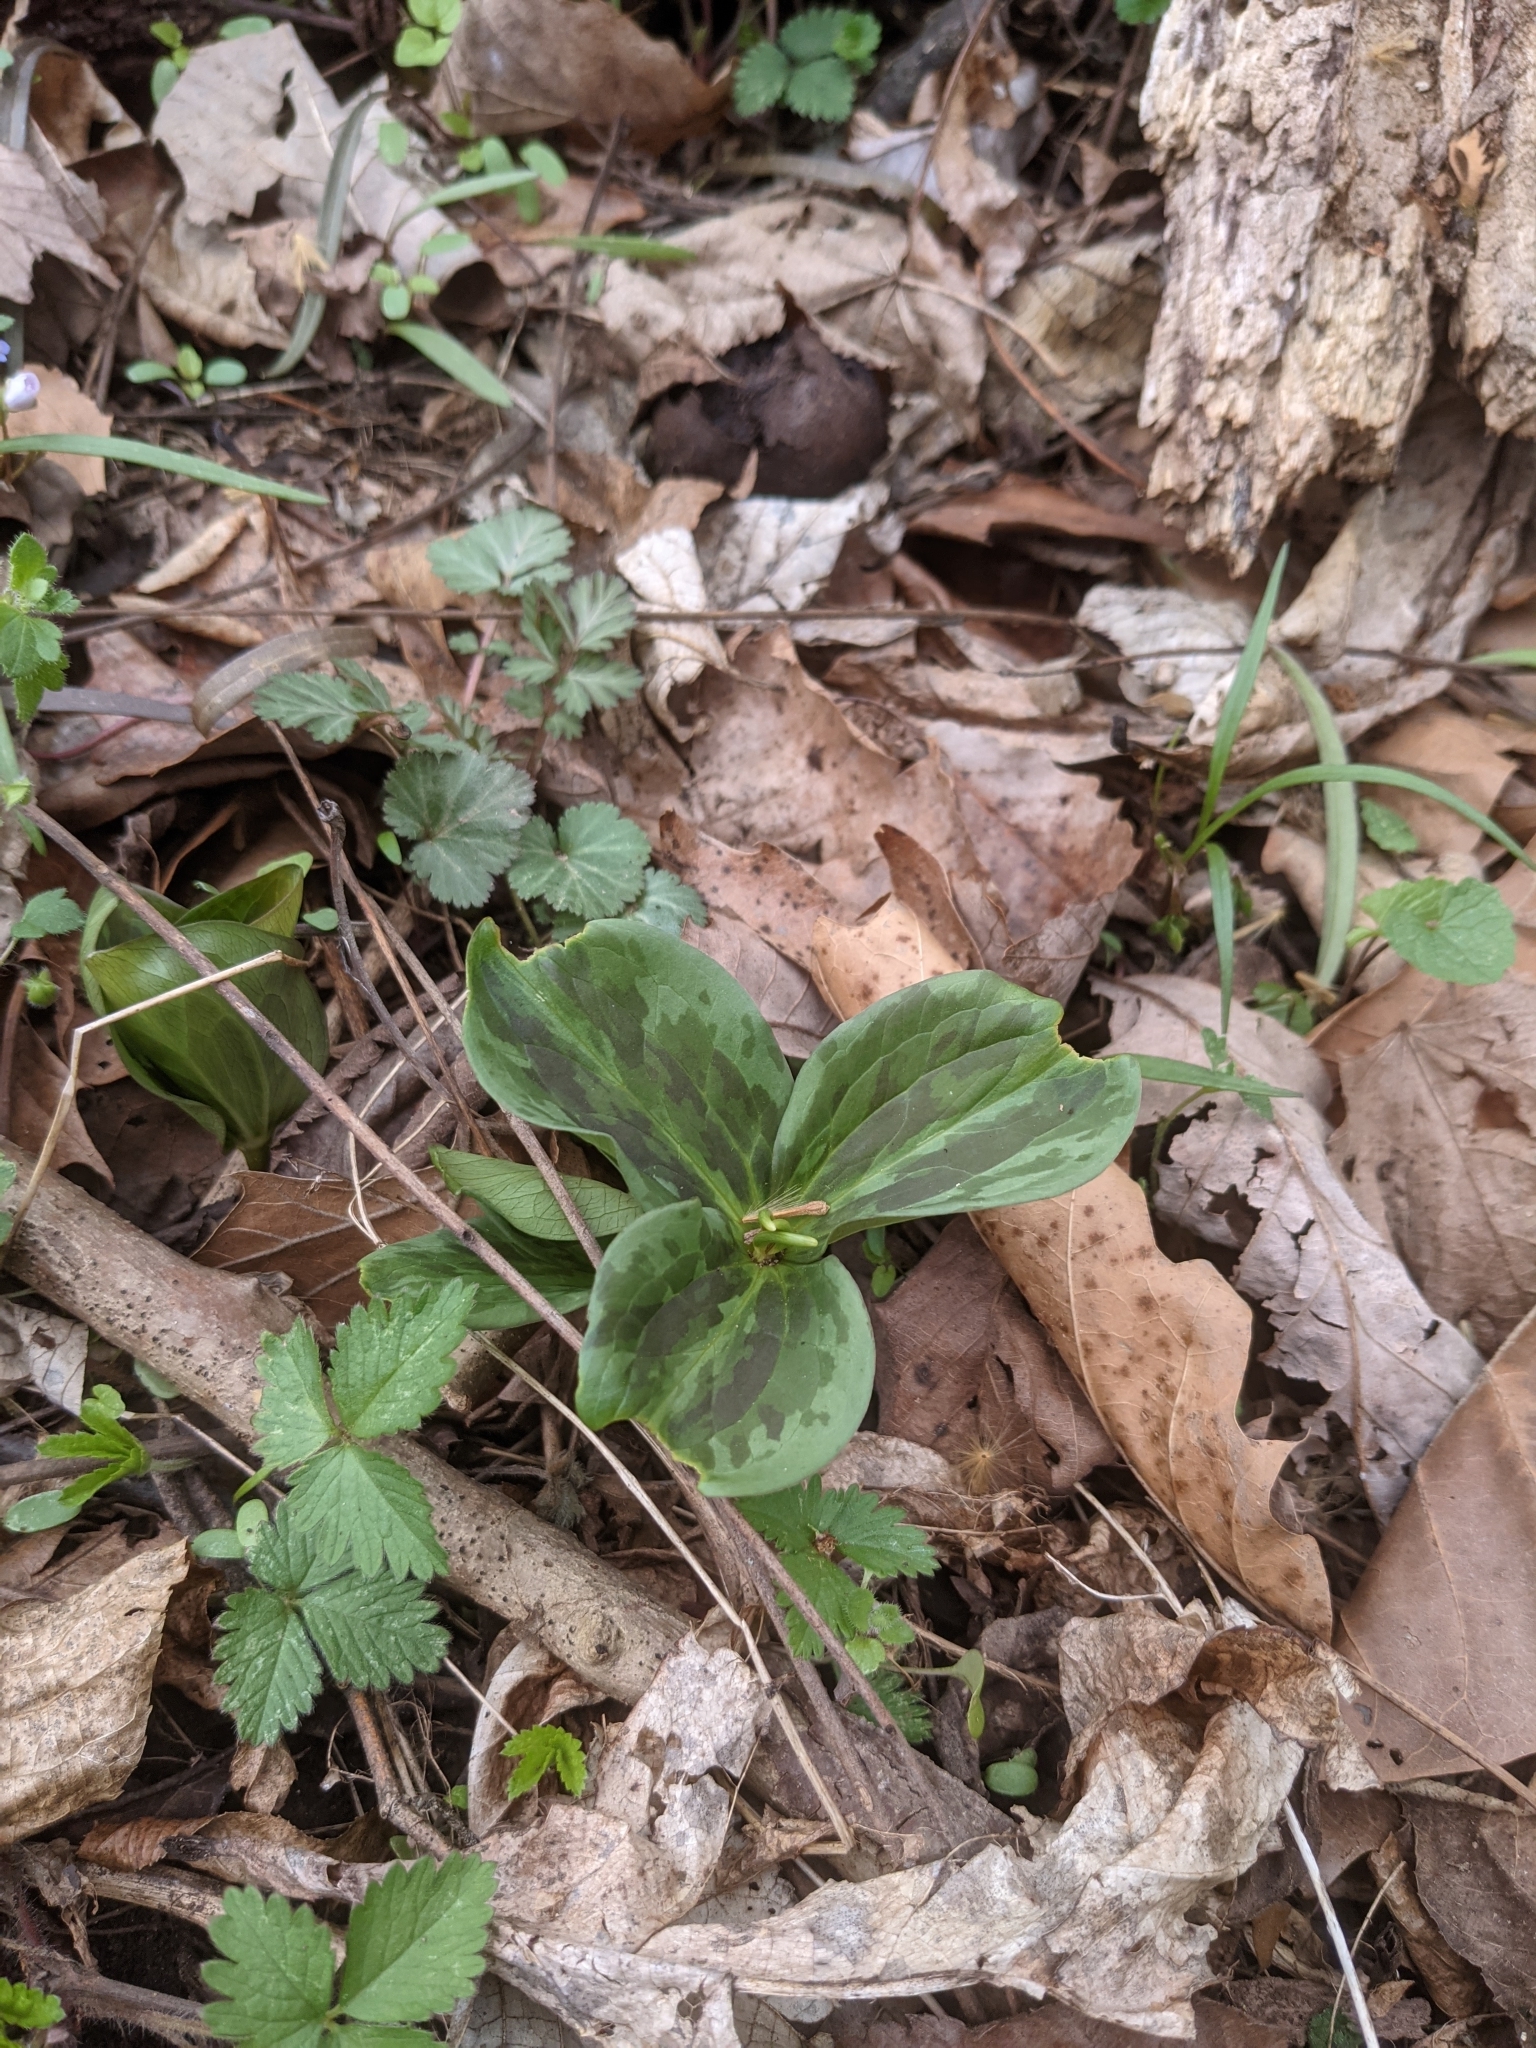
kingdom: Plantae
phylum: Tracheophyta
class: Liliopsida
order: Liliales
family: Melanthiaceae
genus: Trillium
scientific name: Trillium sessile
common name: Sessile trillium
